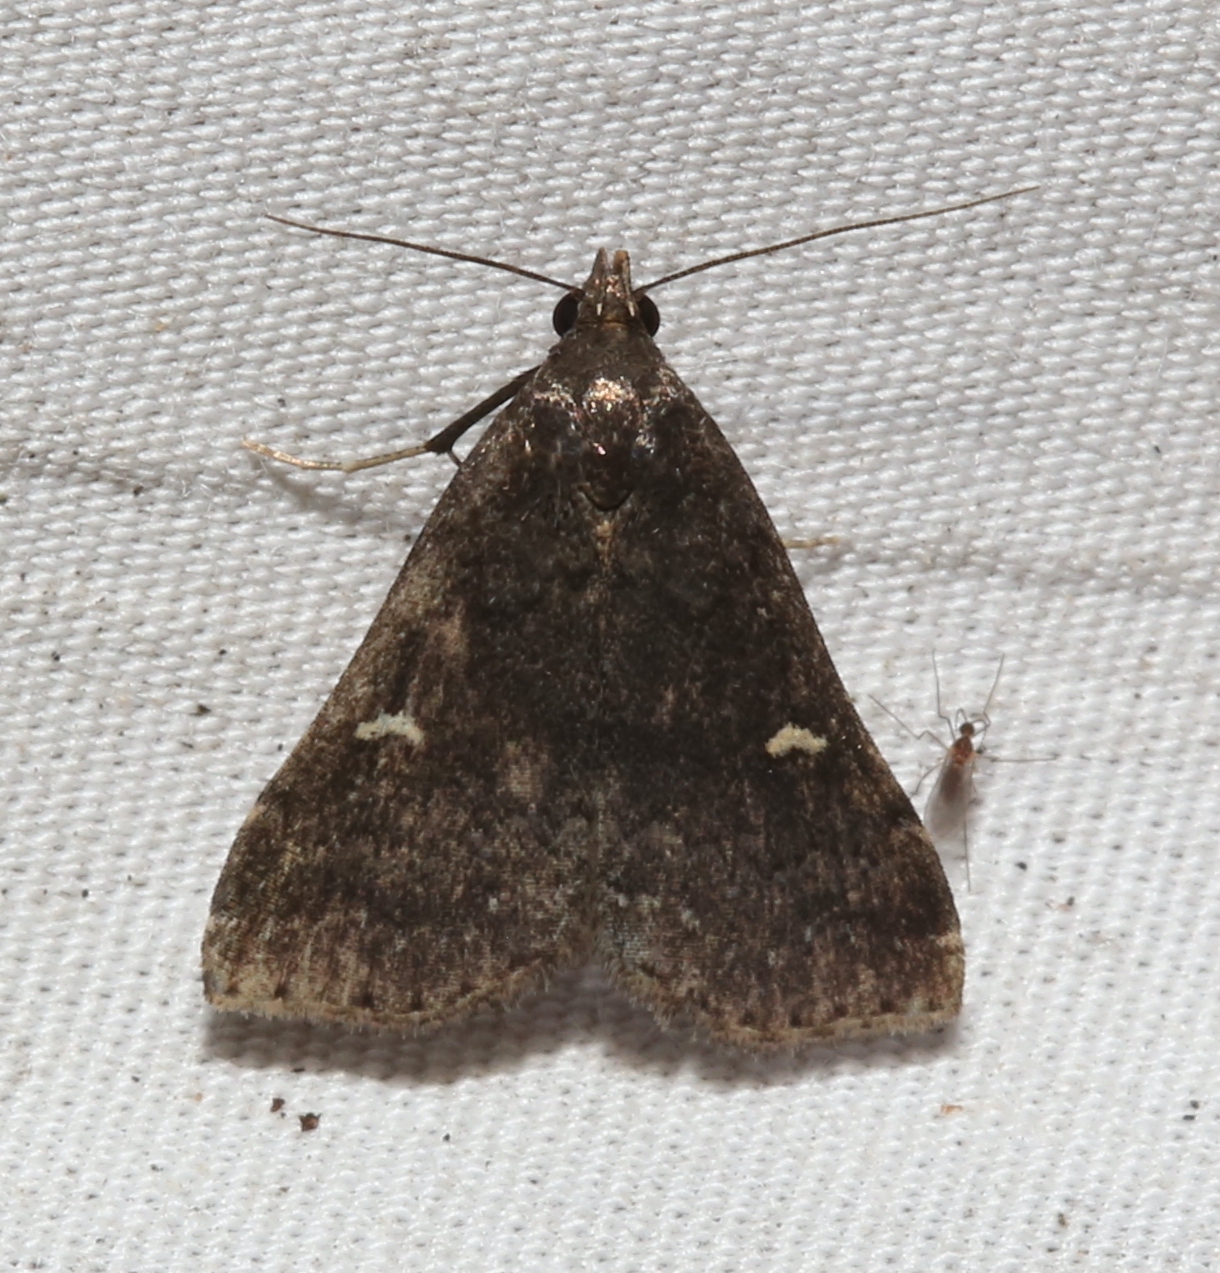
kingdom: Animalia
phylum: Arthropoda
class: Insecta
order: Lepidoptera
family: Erebidae
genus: Tetanolita
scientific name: Tetanolita mynesalis
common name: Smoky tetanolita moth
